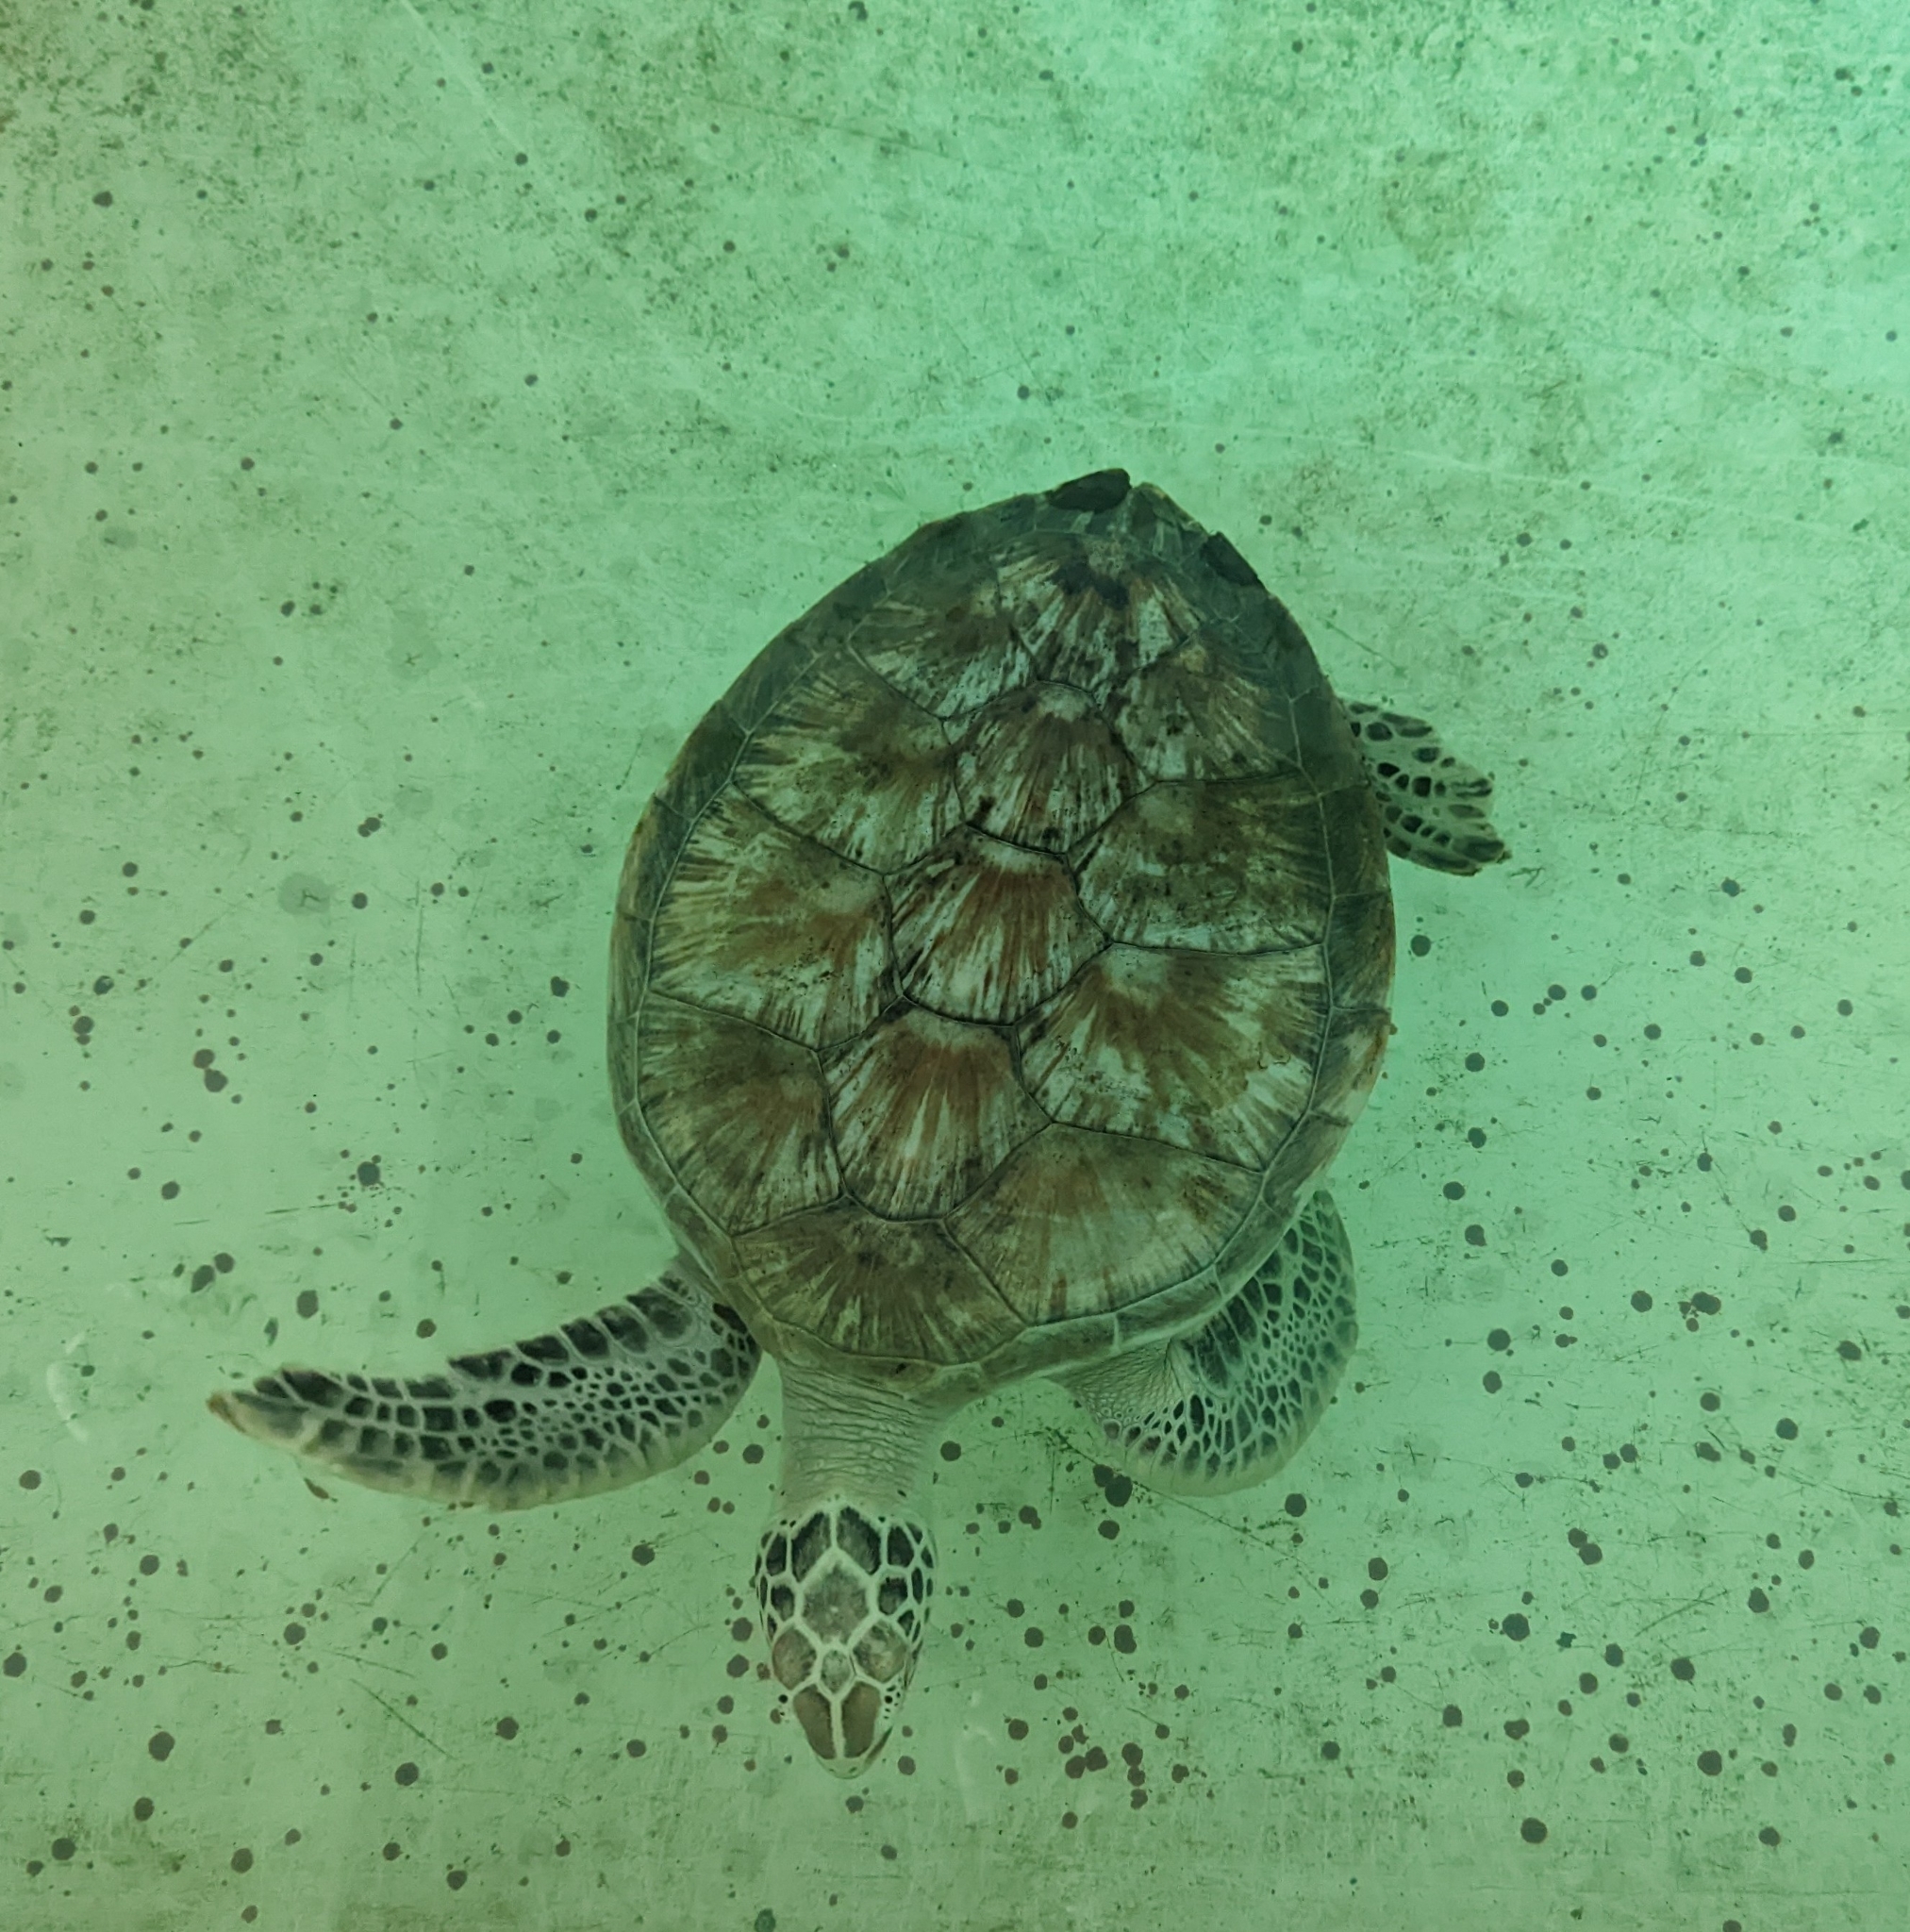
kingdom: Animalia
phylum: Chordata
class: Testudines
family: Cheloniidae
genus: Chelonia
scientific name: Chelonia mydas
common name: Green turtle
